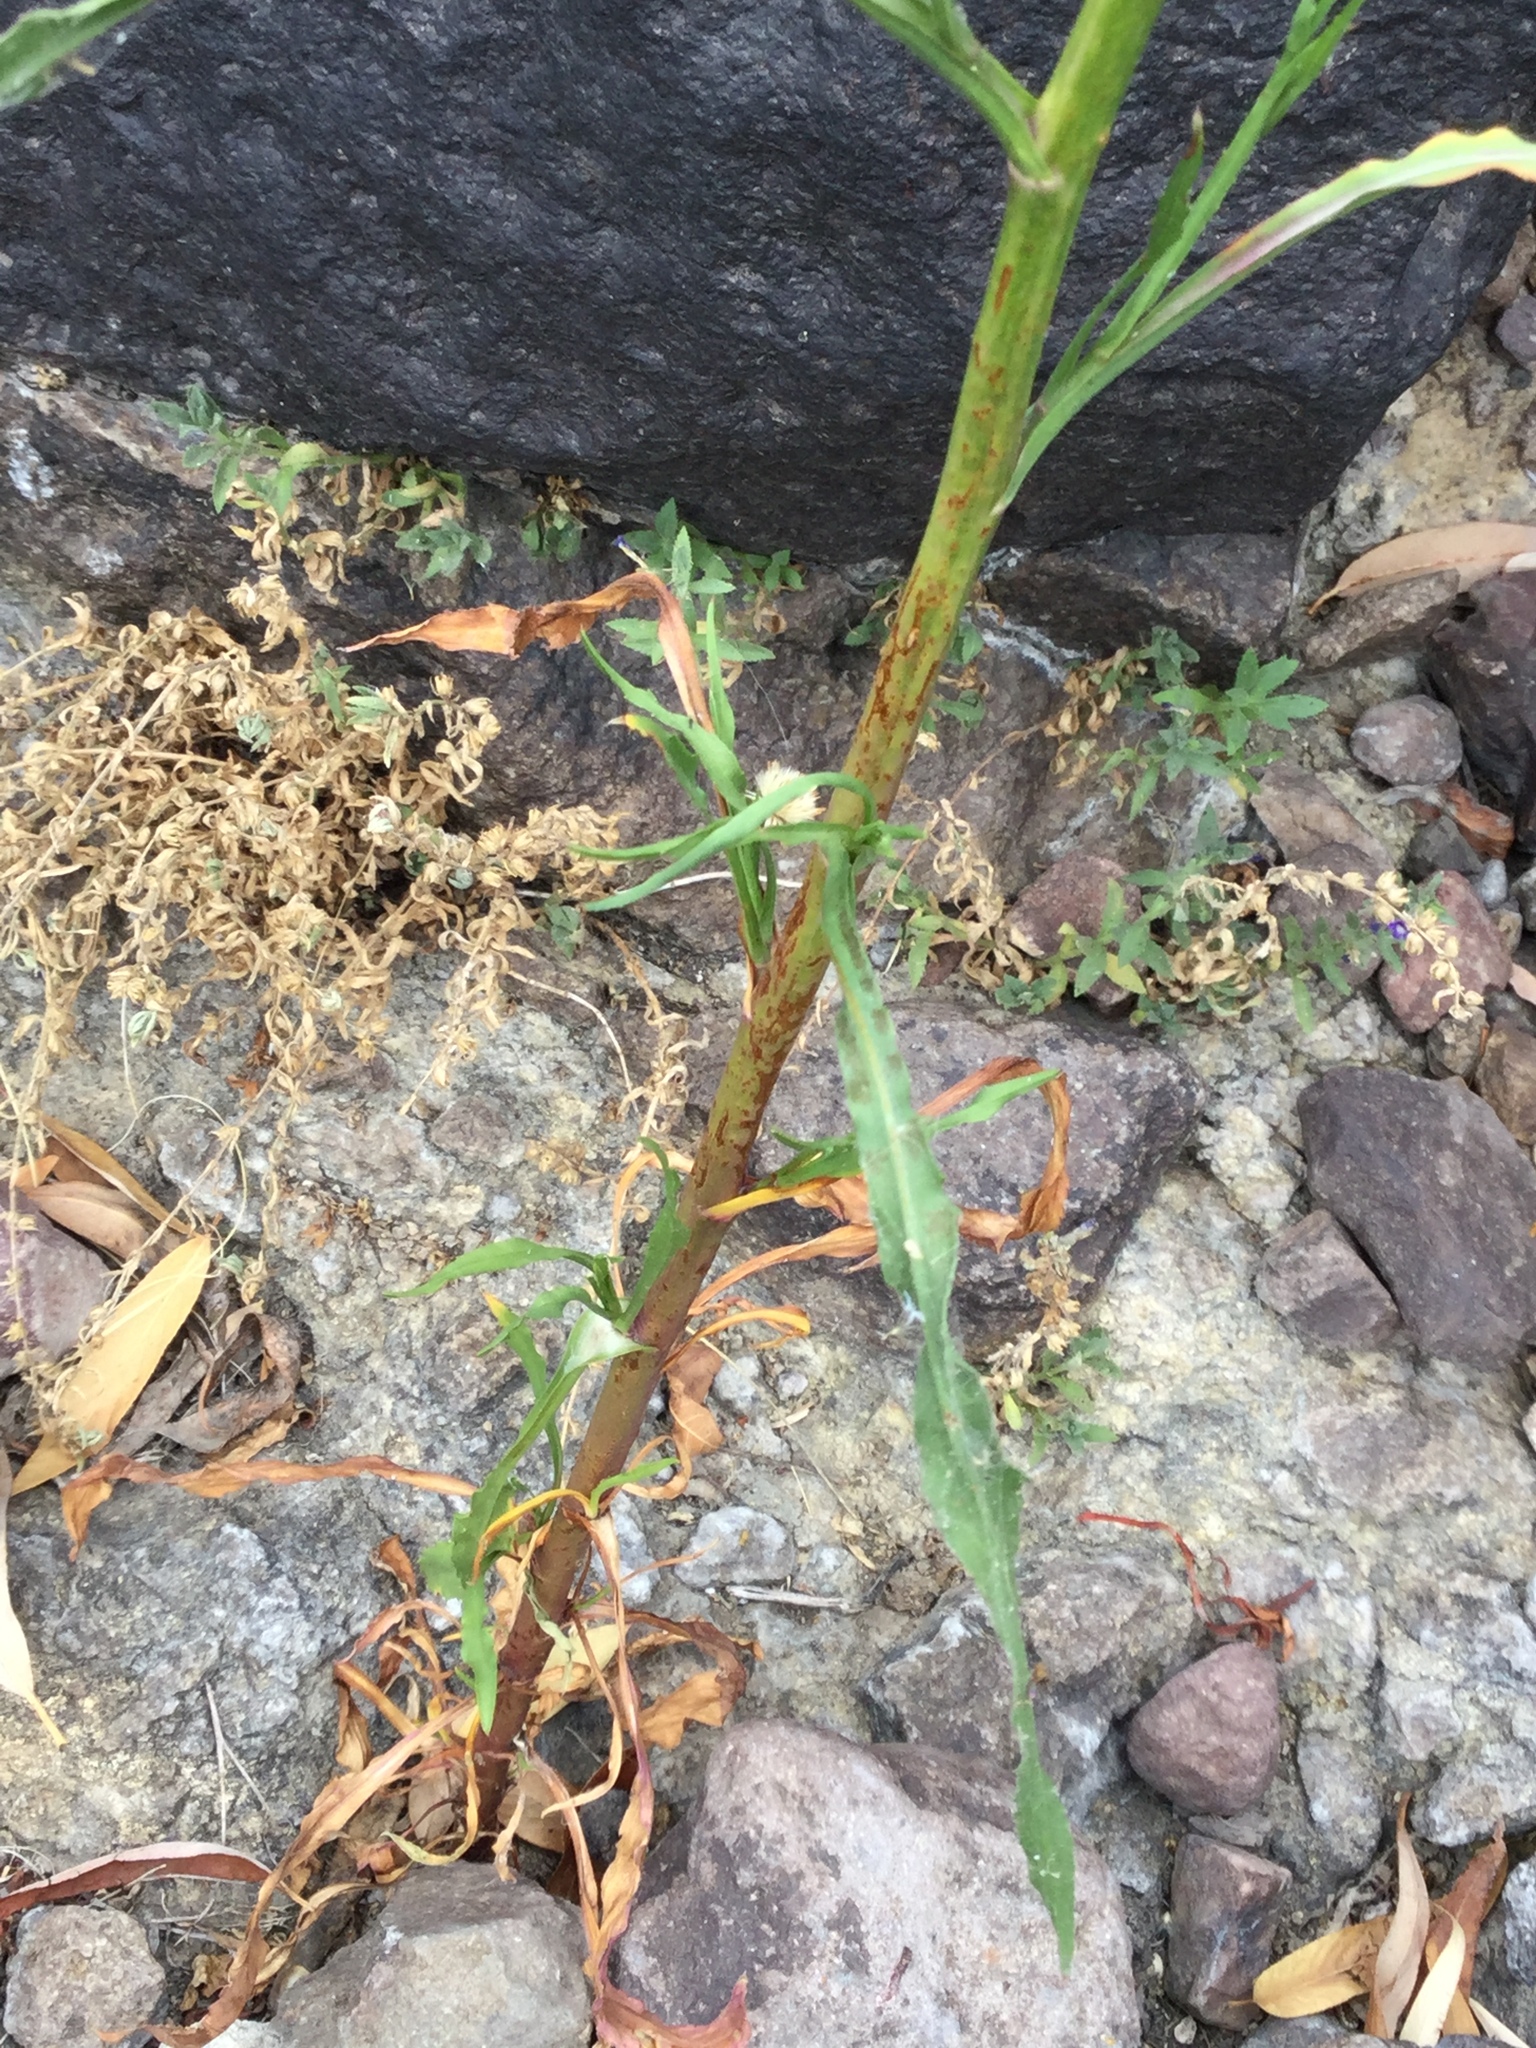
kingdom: Plantae
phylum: Tracheophyta
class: Magnoliopsida
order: Asterales
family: Asteraceae
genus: Symphyotrichum
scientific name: Symphyotrichum subulatum
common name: Annual saltmarsh aster
